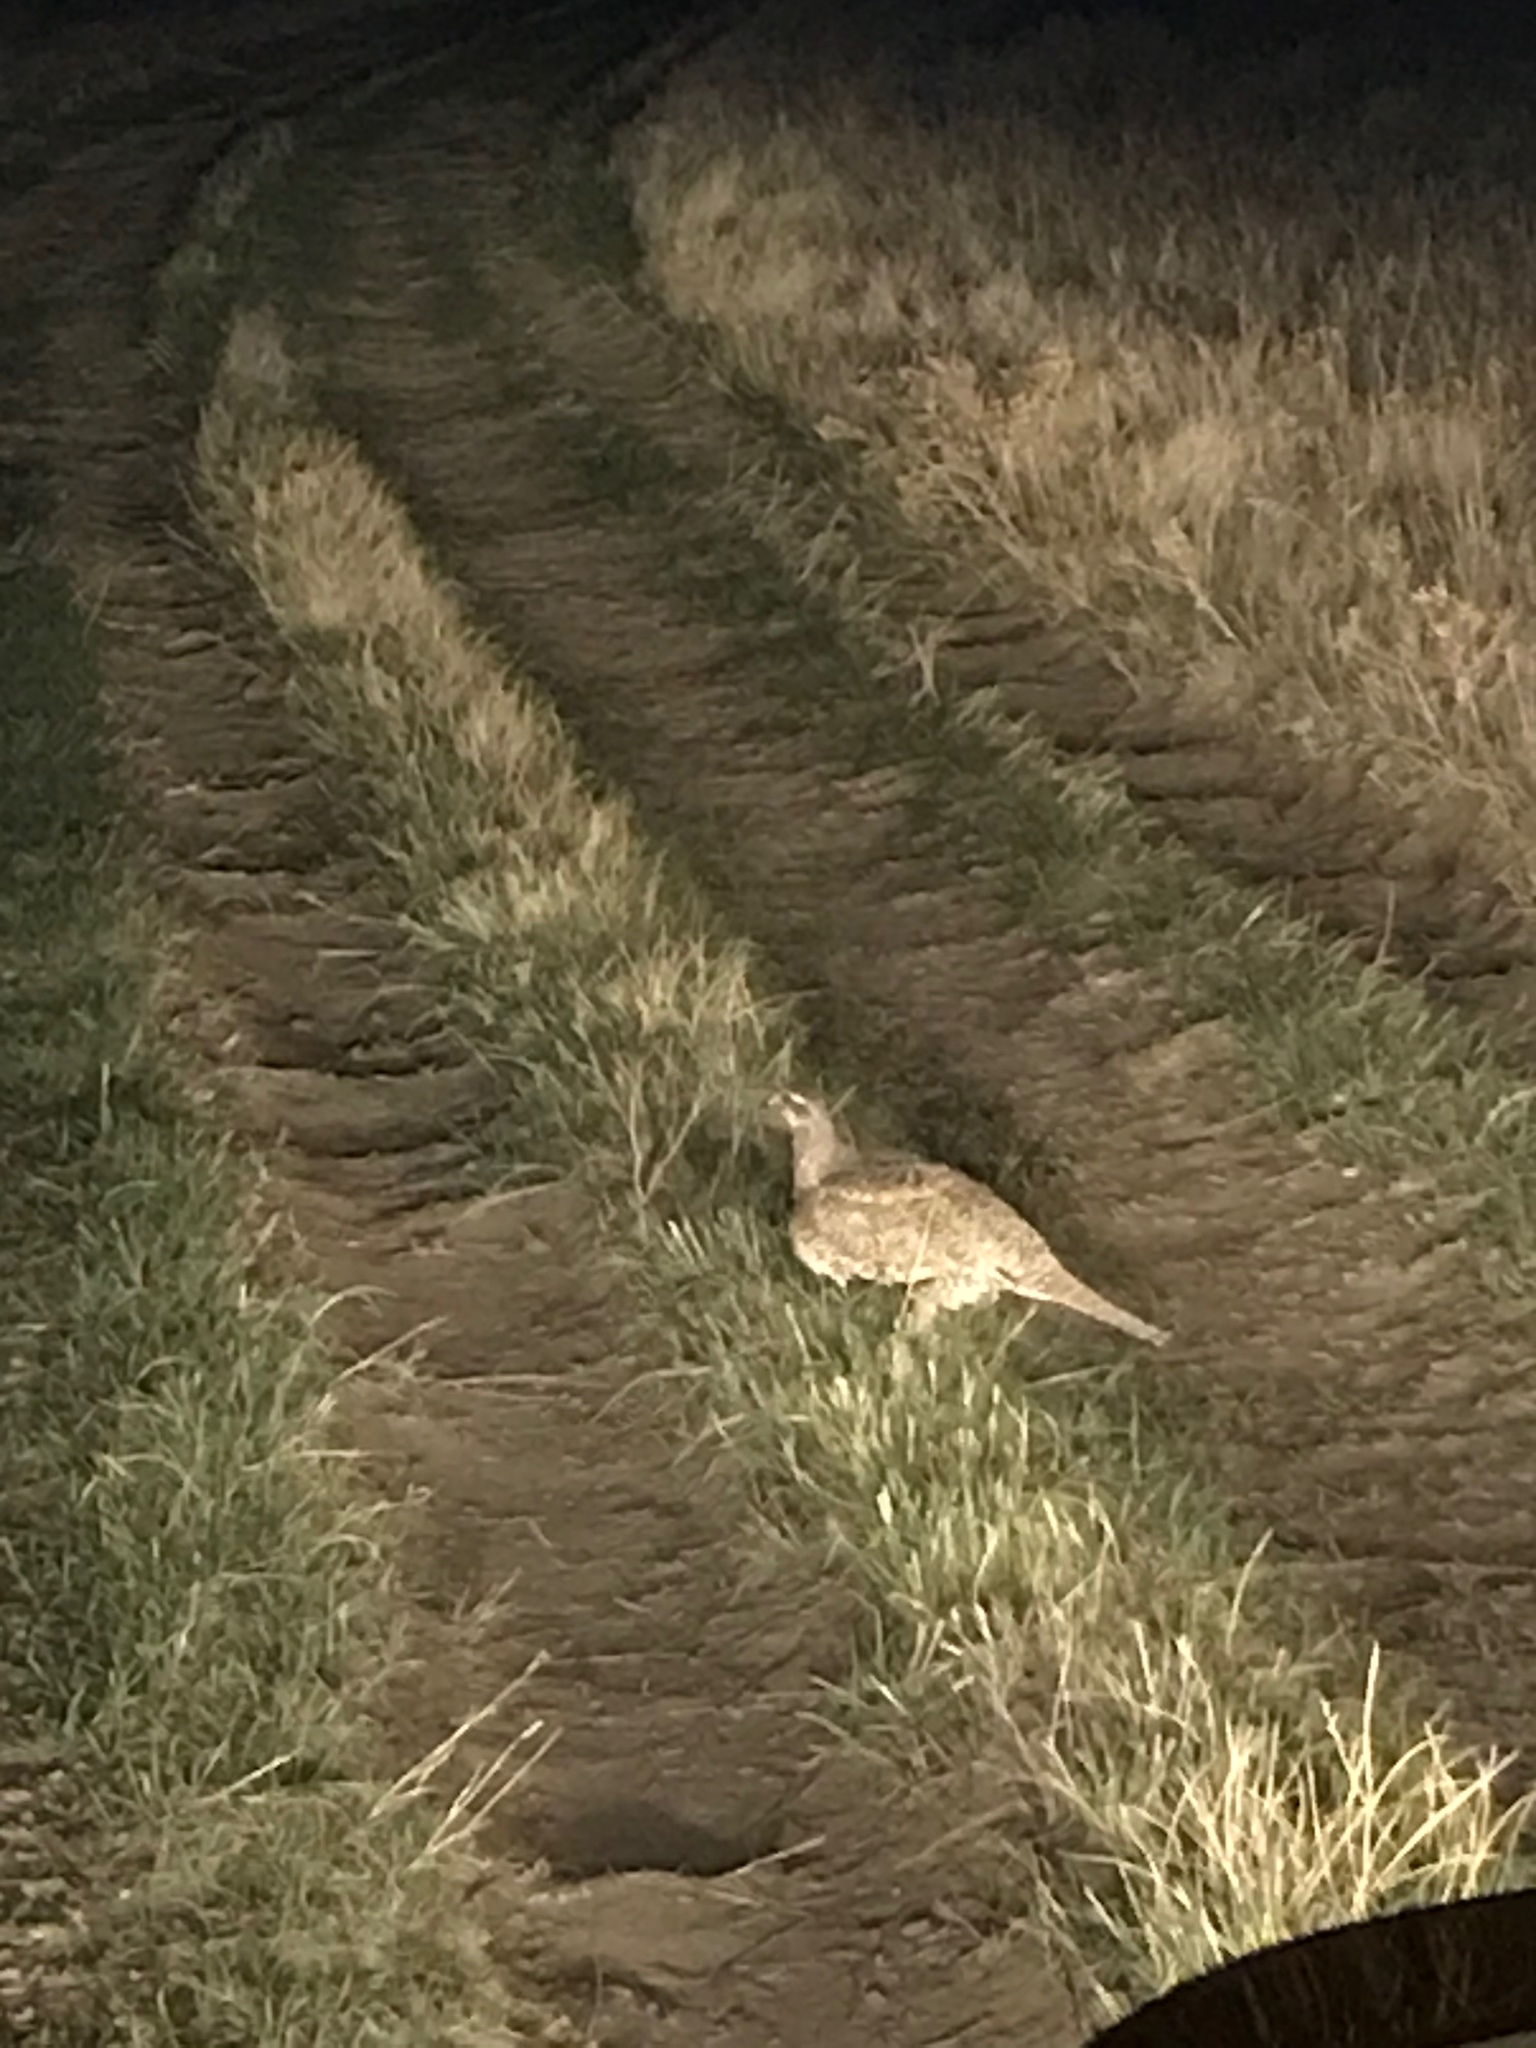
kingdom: Animalia
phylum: Chordata
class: Aves
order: Galliformes
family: Phasianidae
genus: Centrocercus
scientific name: Centrocercus urophasianus
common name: Sage grouse
